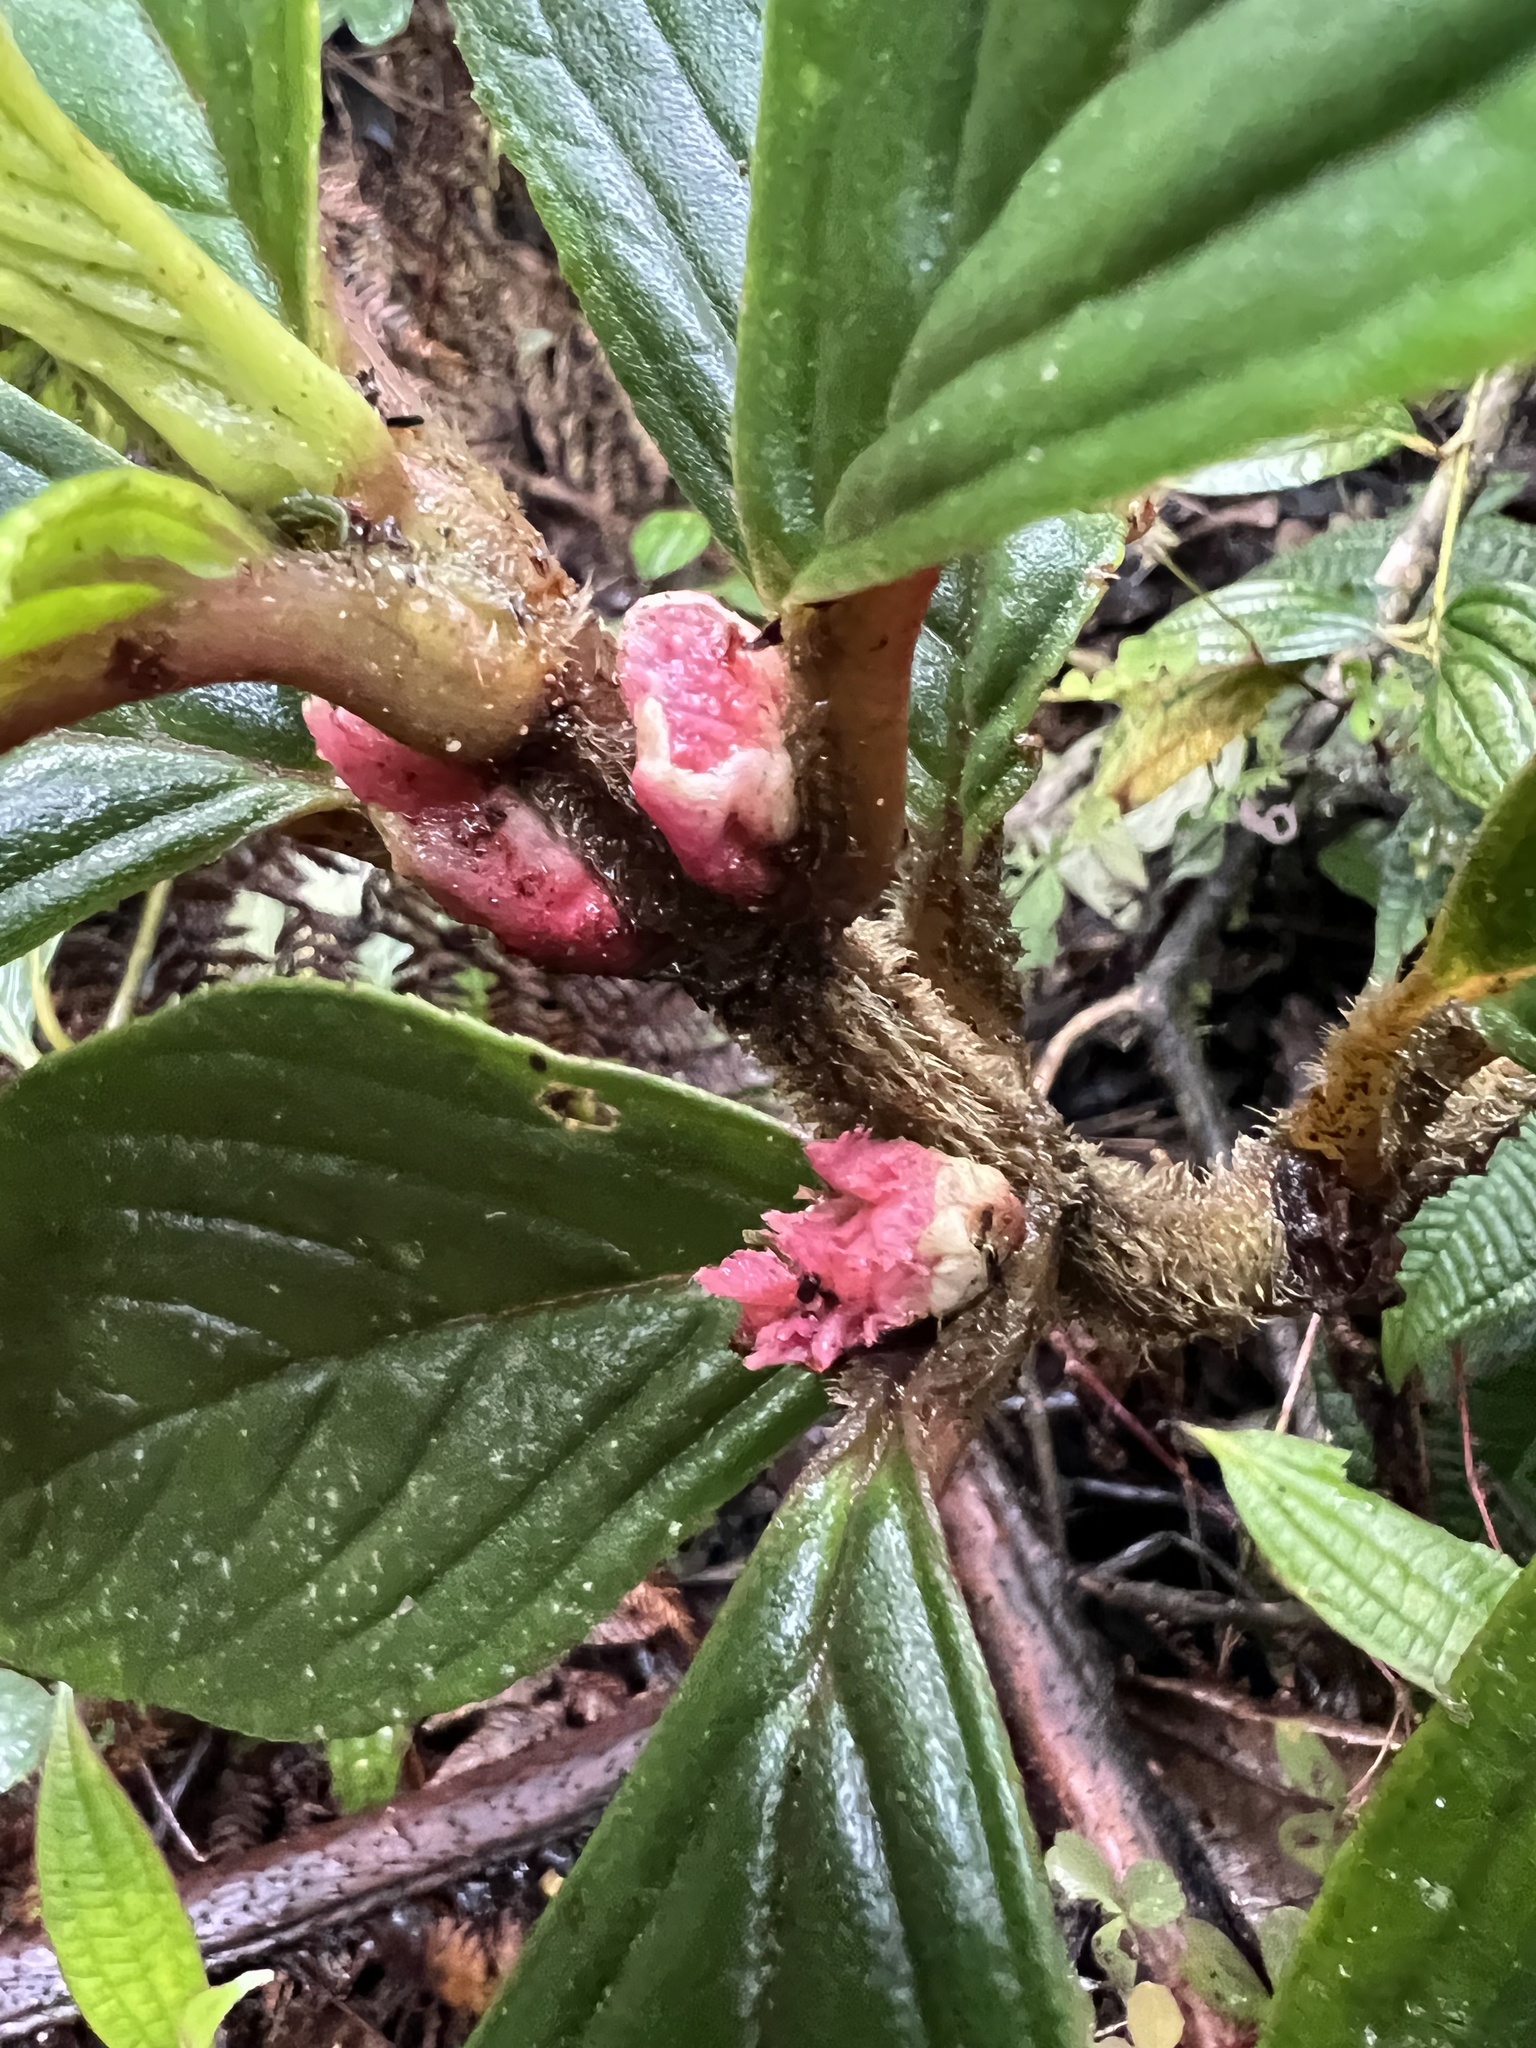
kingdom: Plantae
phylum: Tracheophyta
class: Magnoliopsida
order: Lamiales
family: Gesneriaceae
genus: Glossoloma
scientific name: Glossoloma ichthyoderma
